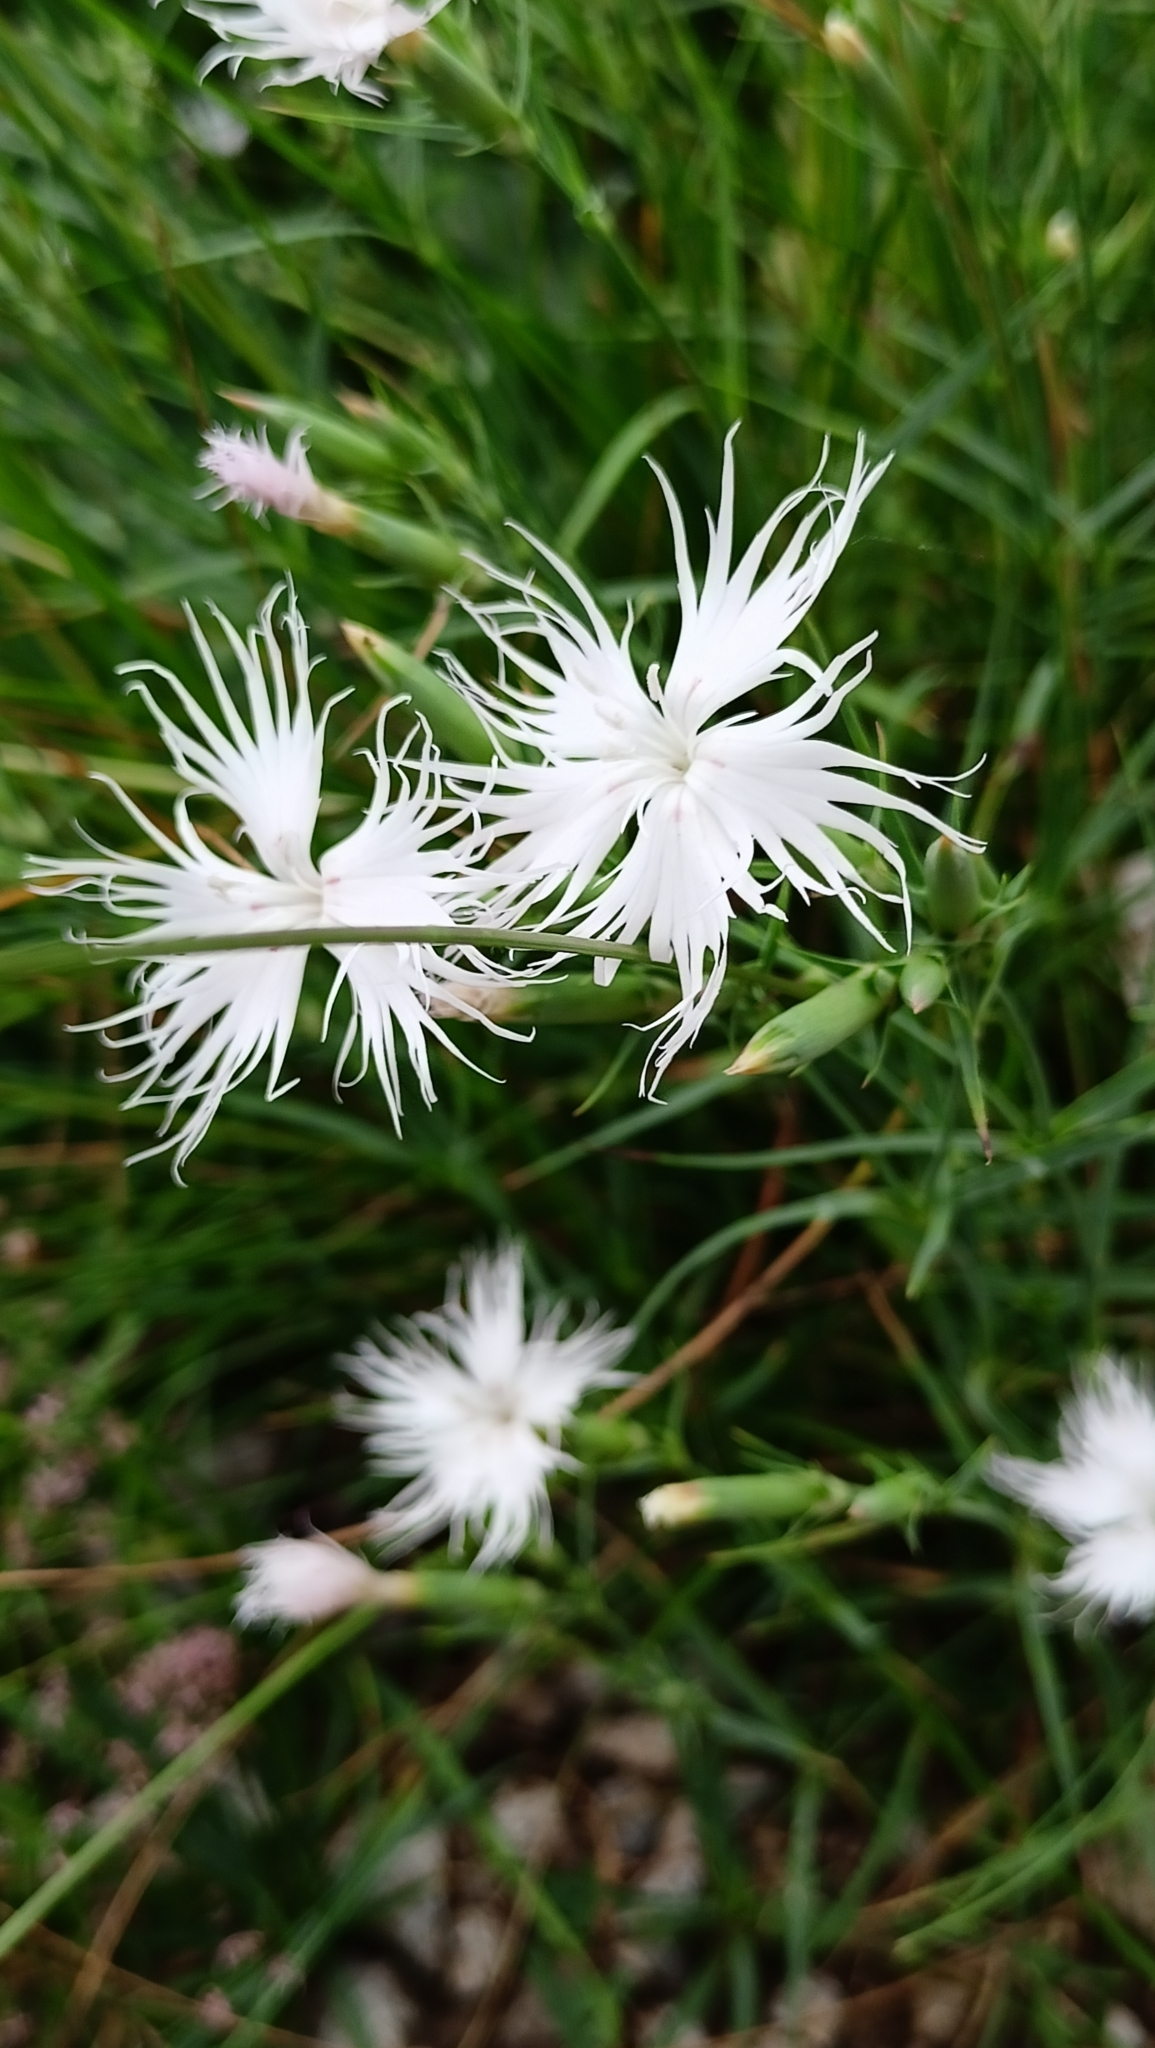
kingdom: Plantae
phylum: Tracheophyta
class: Magnoliopsida
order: Caryophyllales
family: Caryophyllaceae
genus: Dianthus
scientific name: Dianthus hyssopifolius
